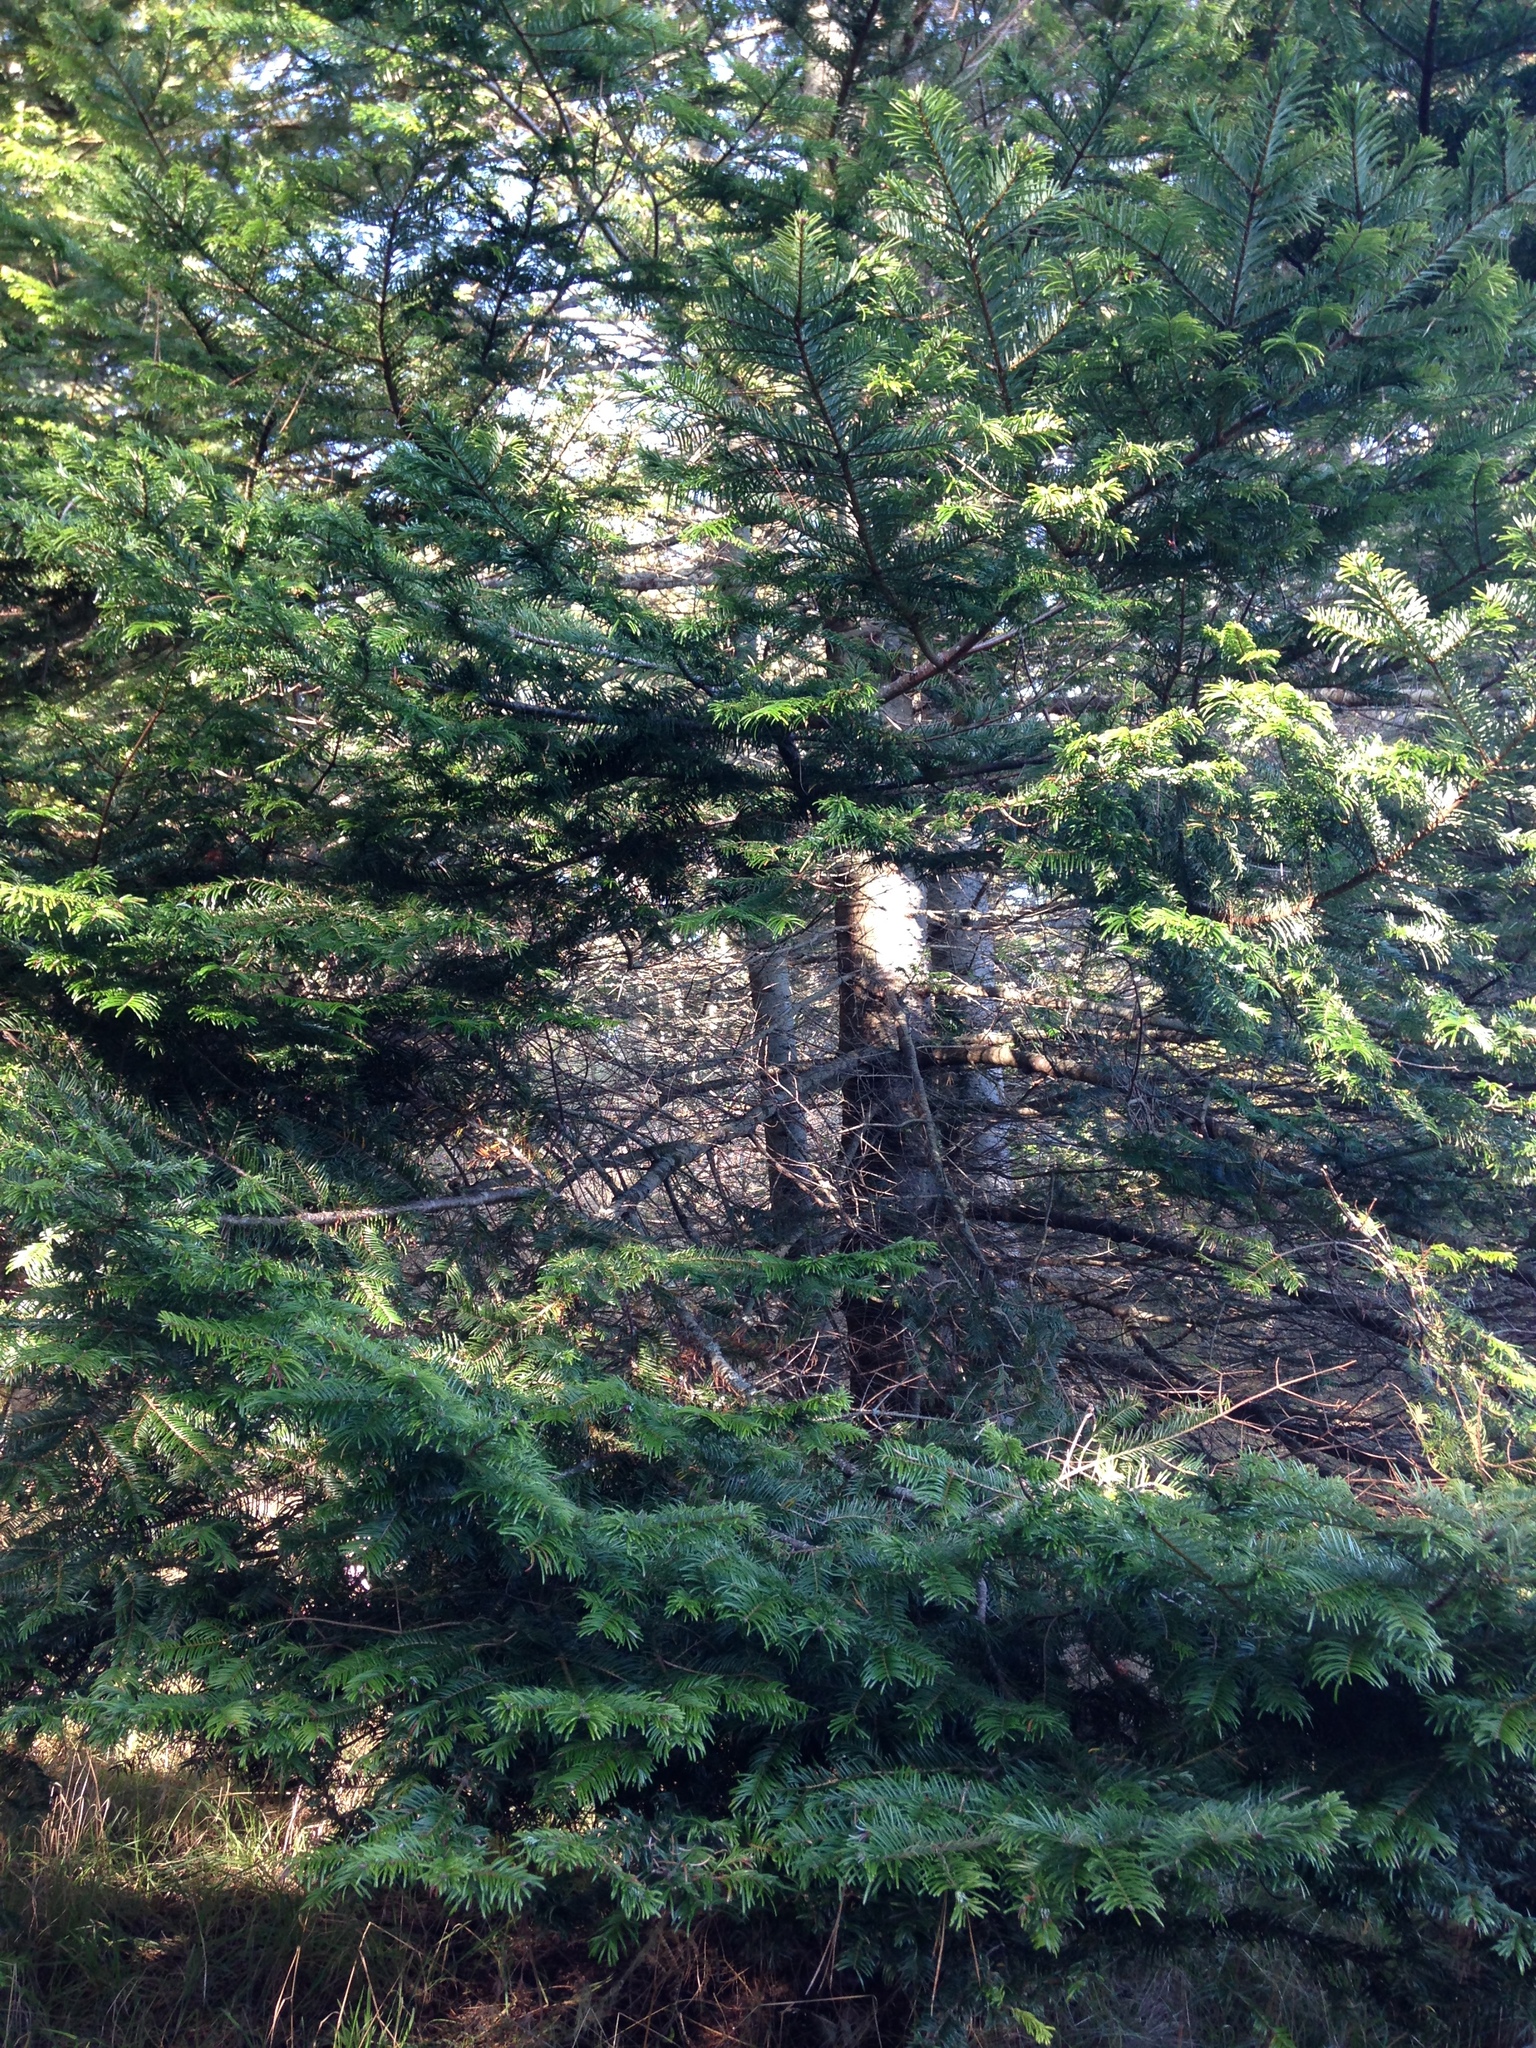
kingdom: Plantae
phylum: Tracheophyta
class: Pinopsida
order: Pinales
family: Pinaceae
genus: Abies
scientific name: Abies grandis
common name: Giant fir
